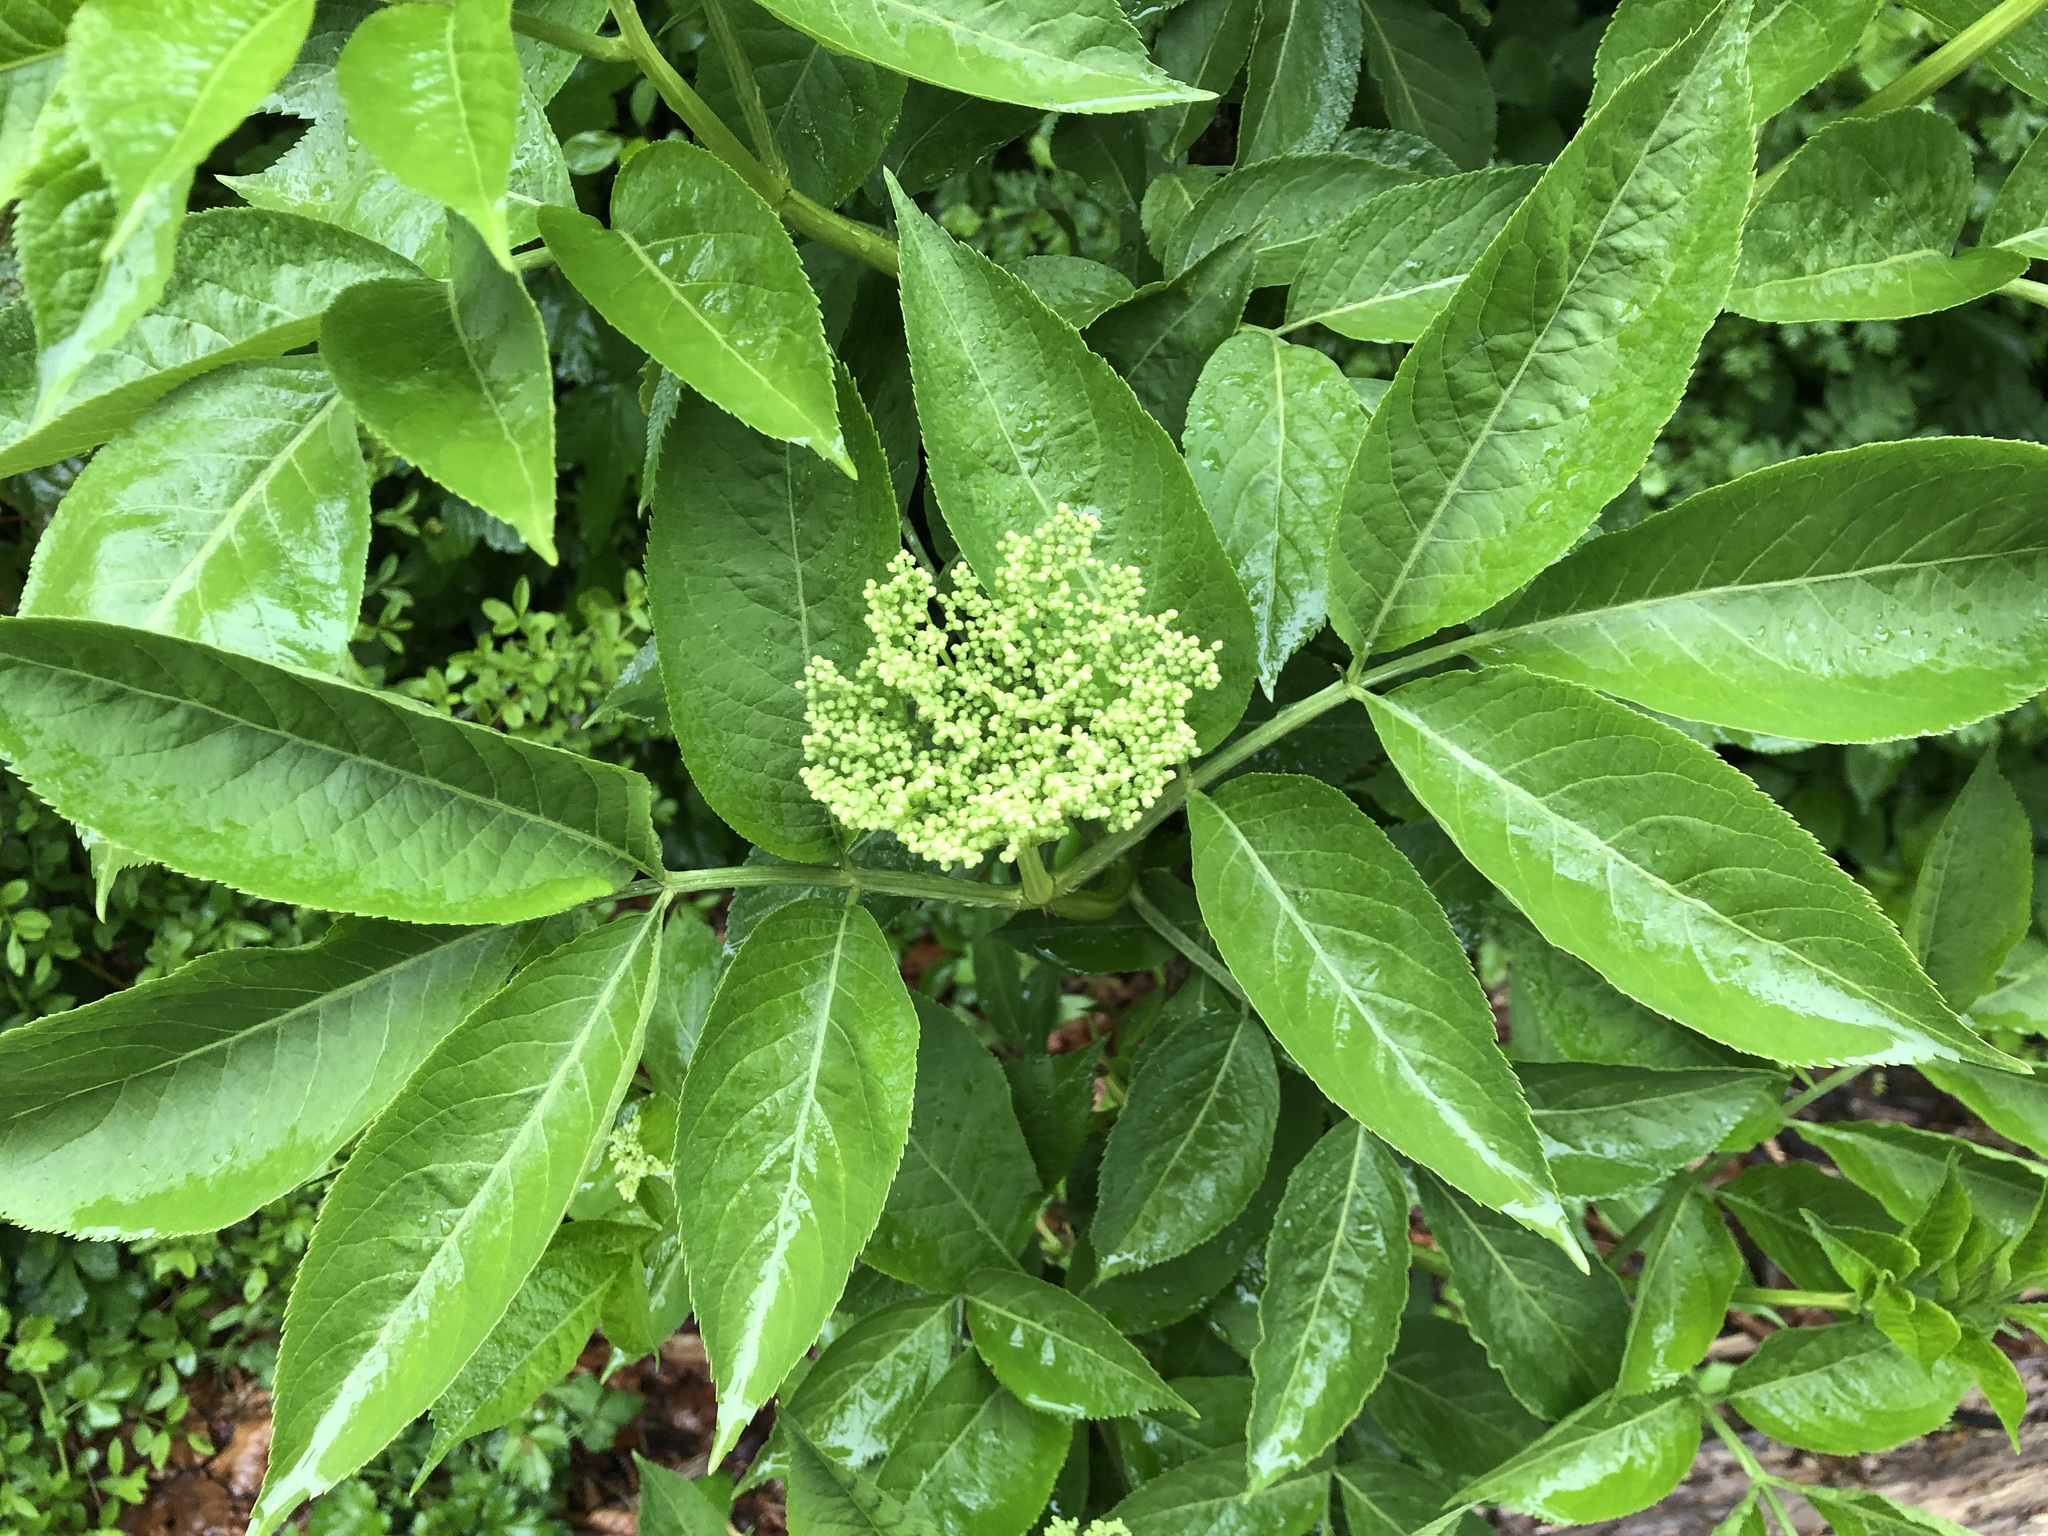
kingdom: Plantae
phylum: Tracheophyta
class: Magnoliopsida
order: Dipsacales
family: Viburnaceae
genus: Sambucus
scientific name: Sambucus nigra
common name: Elder
